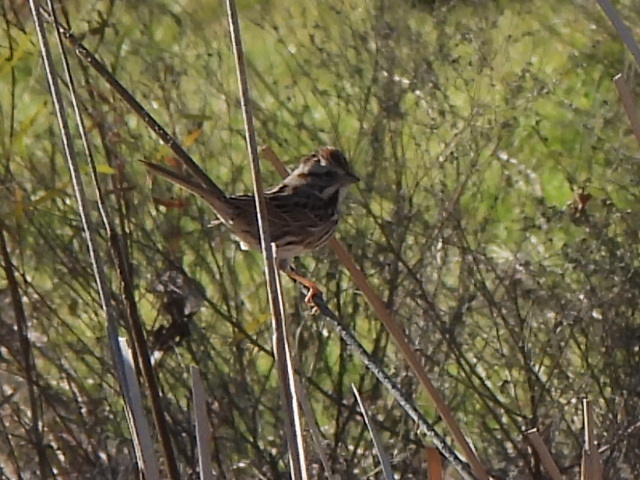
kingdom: Animalia
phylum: Chordata
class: Aves
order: Passeriformes
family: Passerellidae
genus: Melospiza
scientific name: Melospiza melodia
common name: Song sparrow
